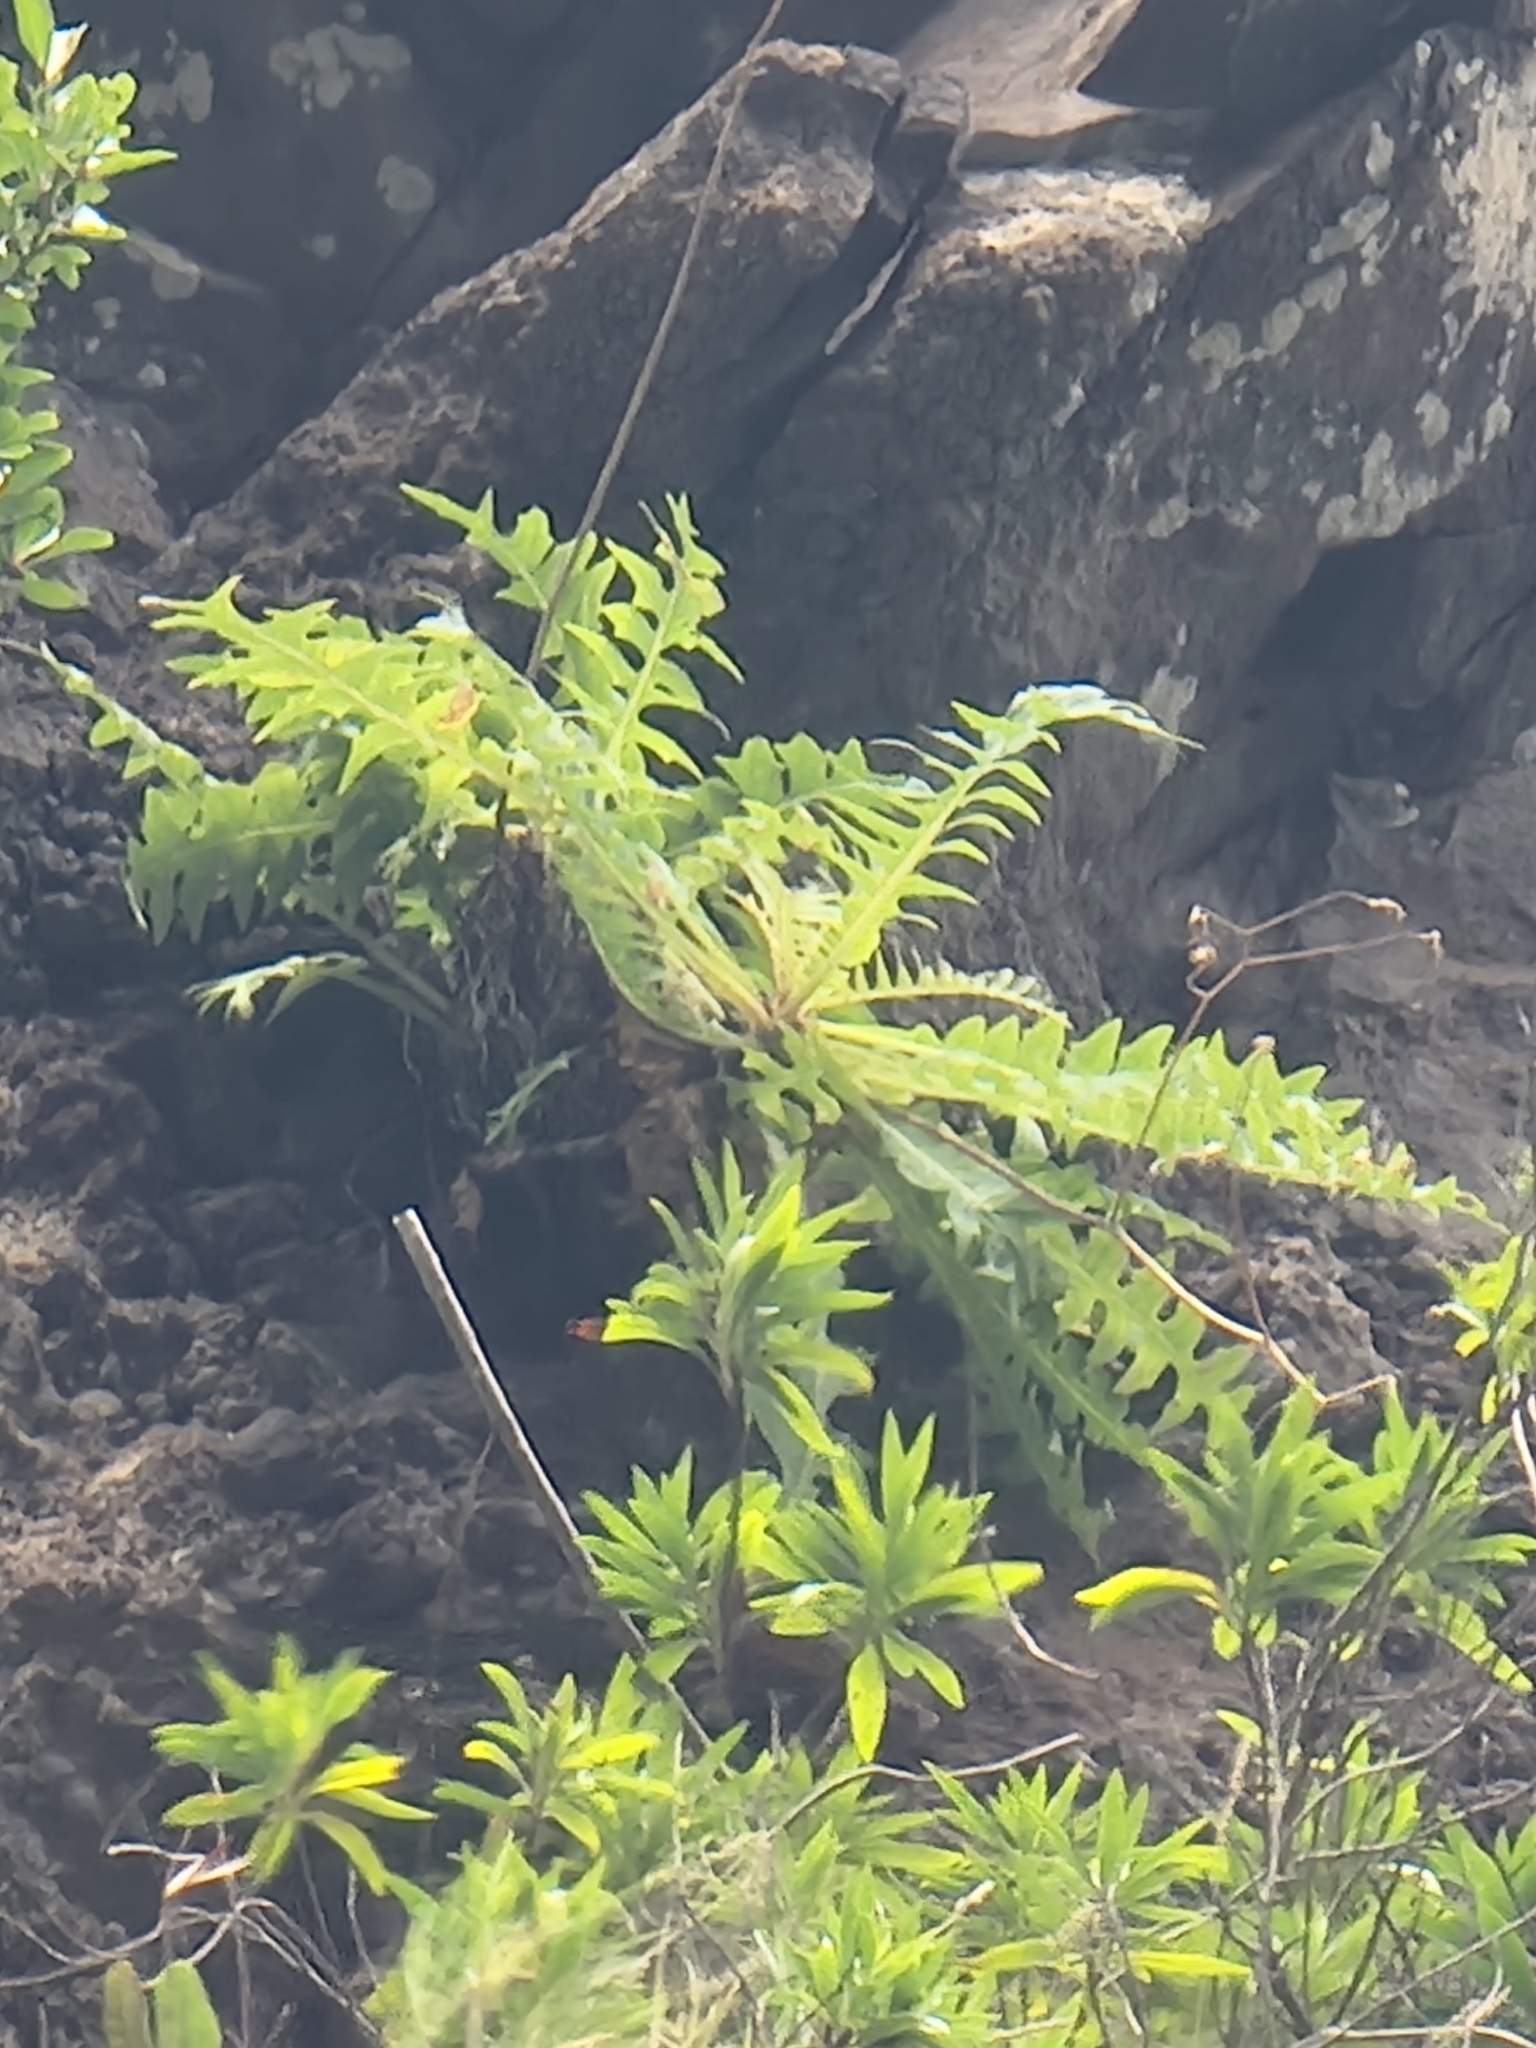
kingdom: Plantae
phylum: Tracheophyta
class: Magnoliopsida
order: Asterales
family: Asteraceae
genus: Sonchus
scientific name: Sonchus ustulatus
